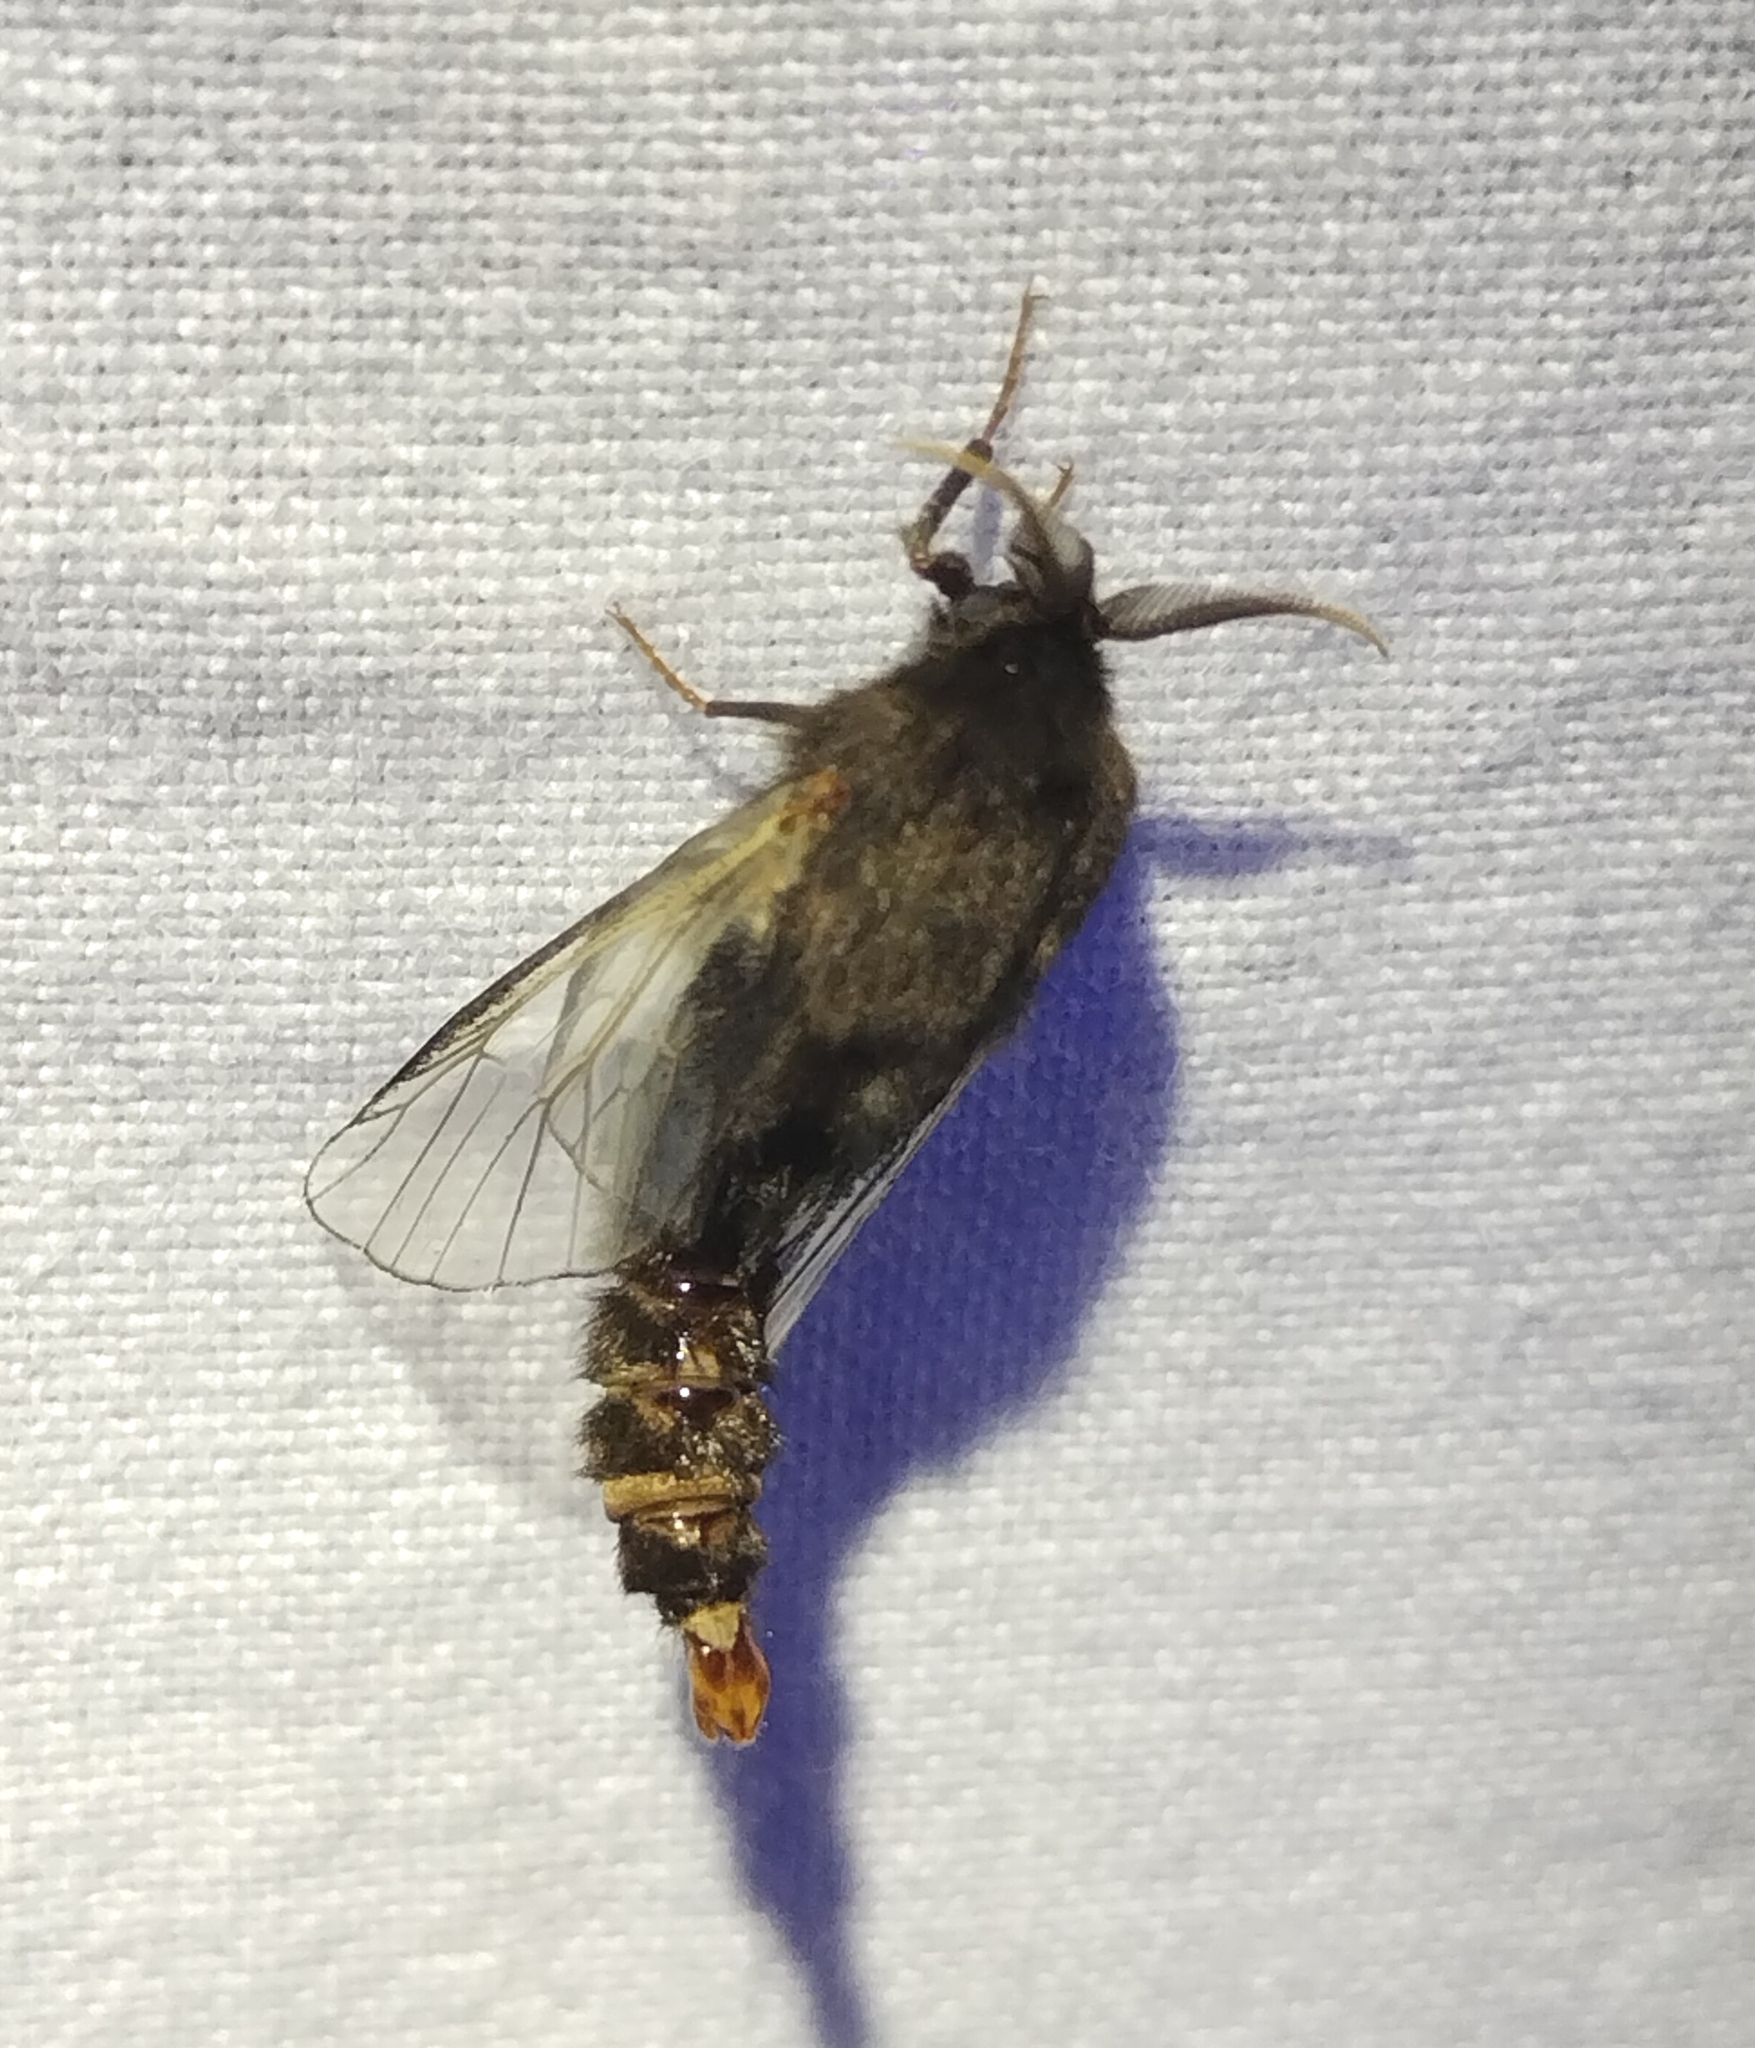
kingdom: Animalia
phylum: Arthropoda
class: Insecta
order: Lepidoptera
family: Psychidae
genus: Thyridopteryx
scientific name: Thyridopteryx ephemeraeformis
